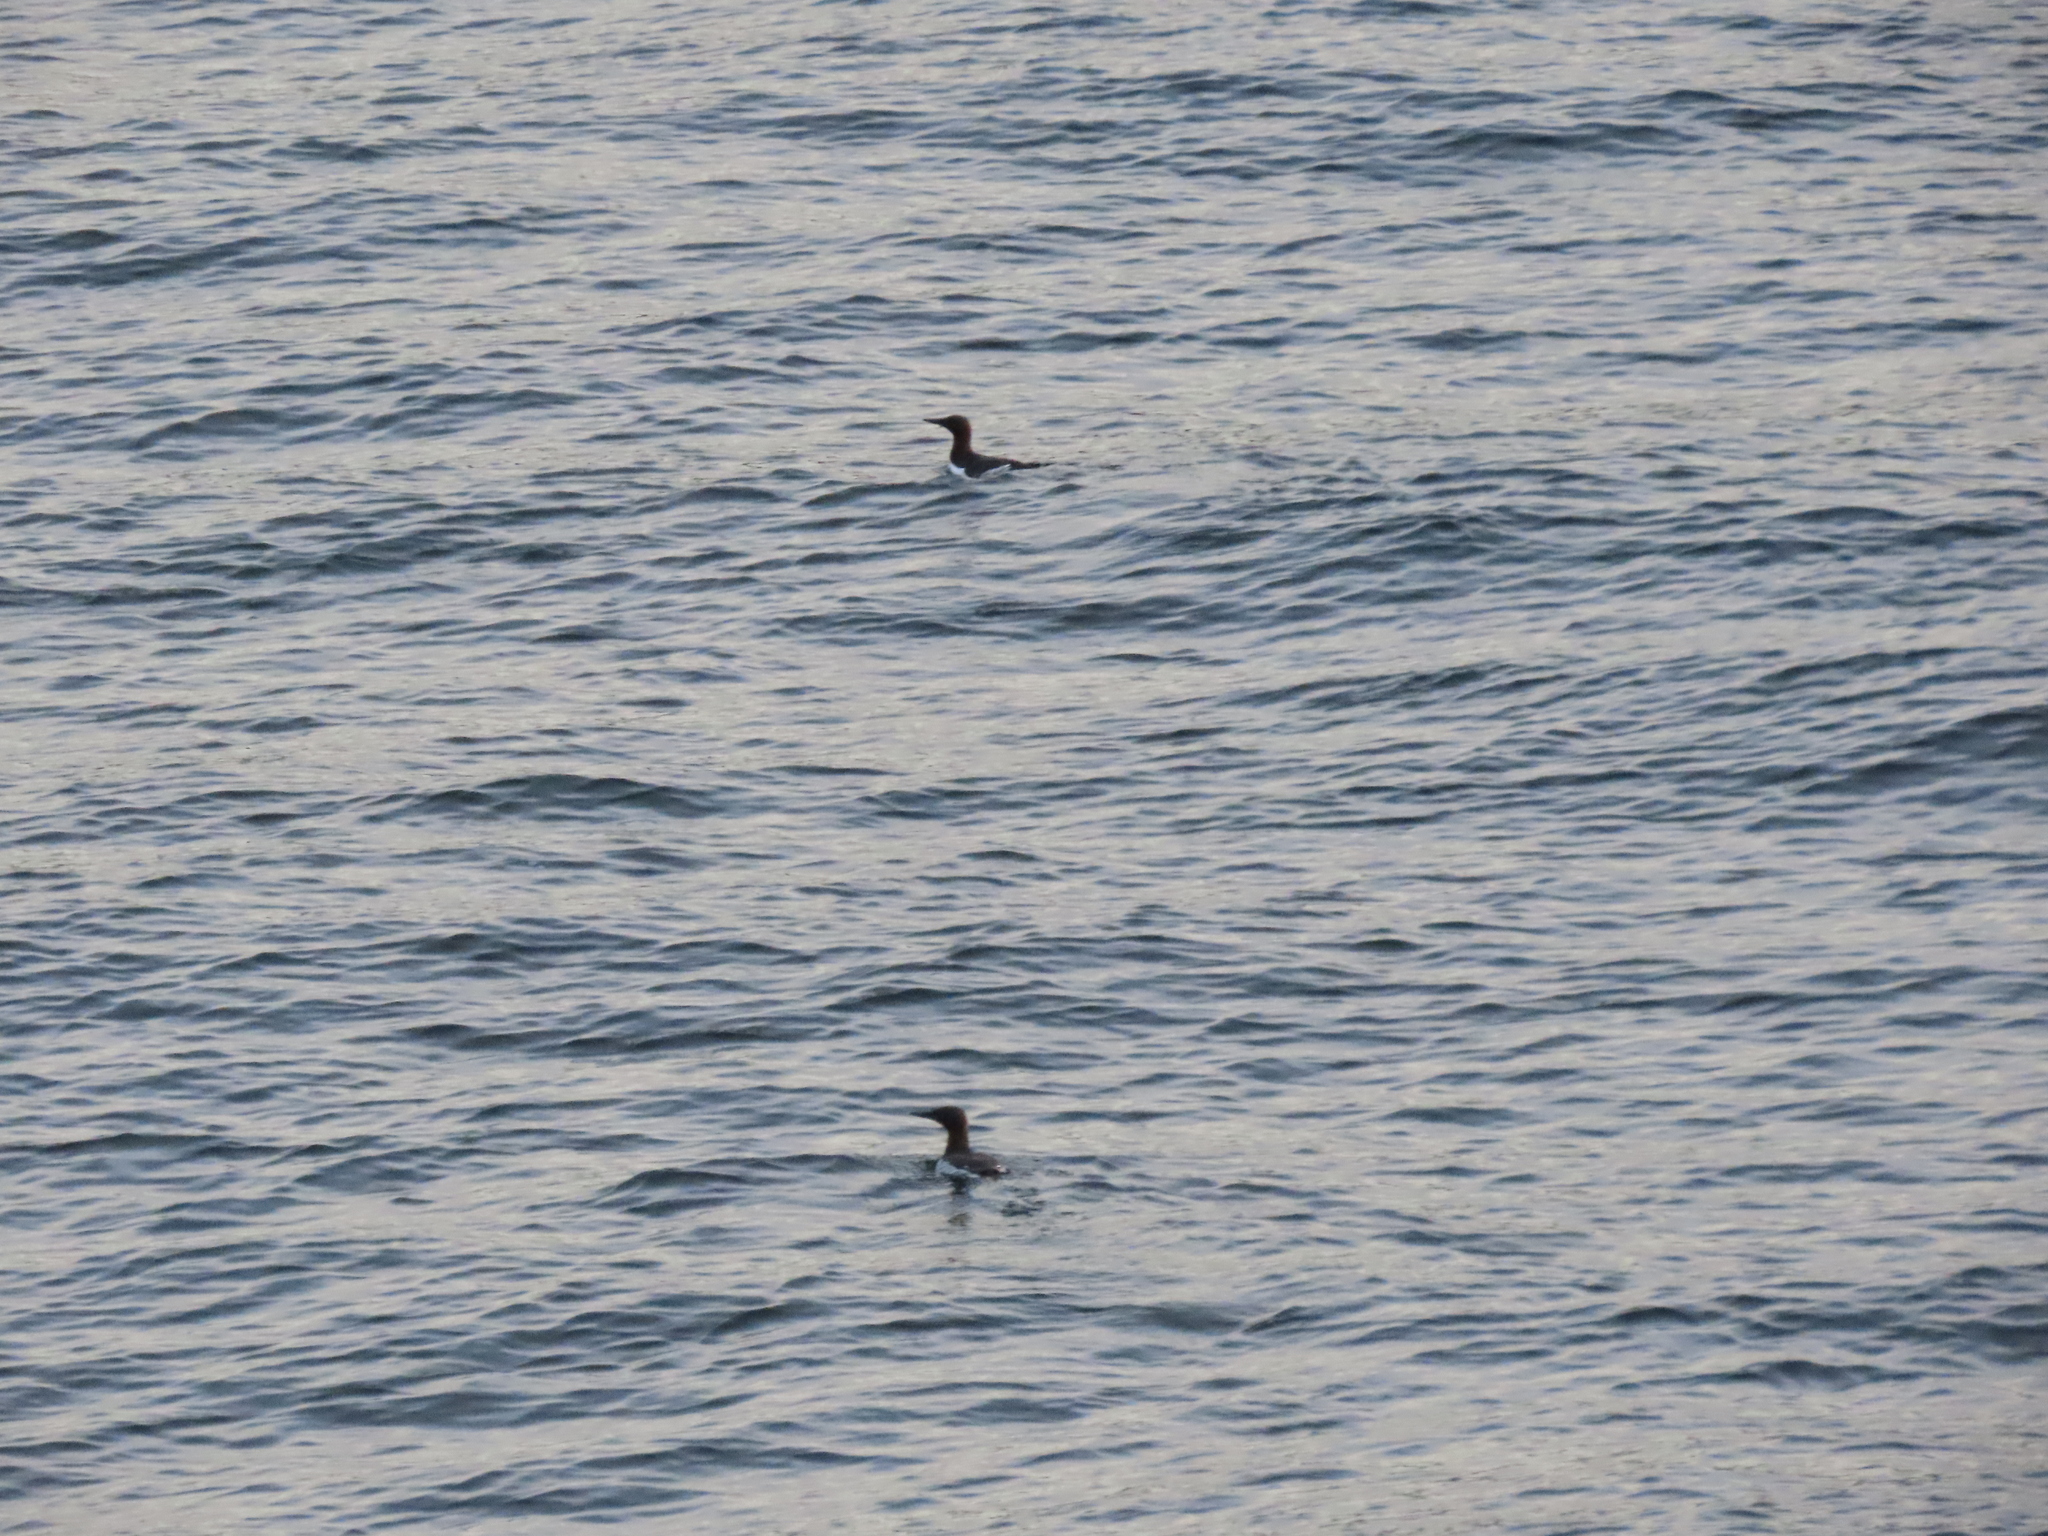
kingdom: Animalia
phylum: Chordata
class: Aves
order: Charadriiformes
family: Alcidae
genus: Uria
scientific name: Uria aalge
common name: Common murre
